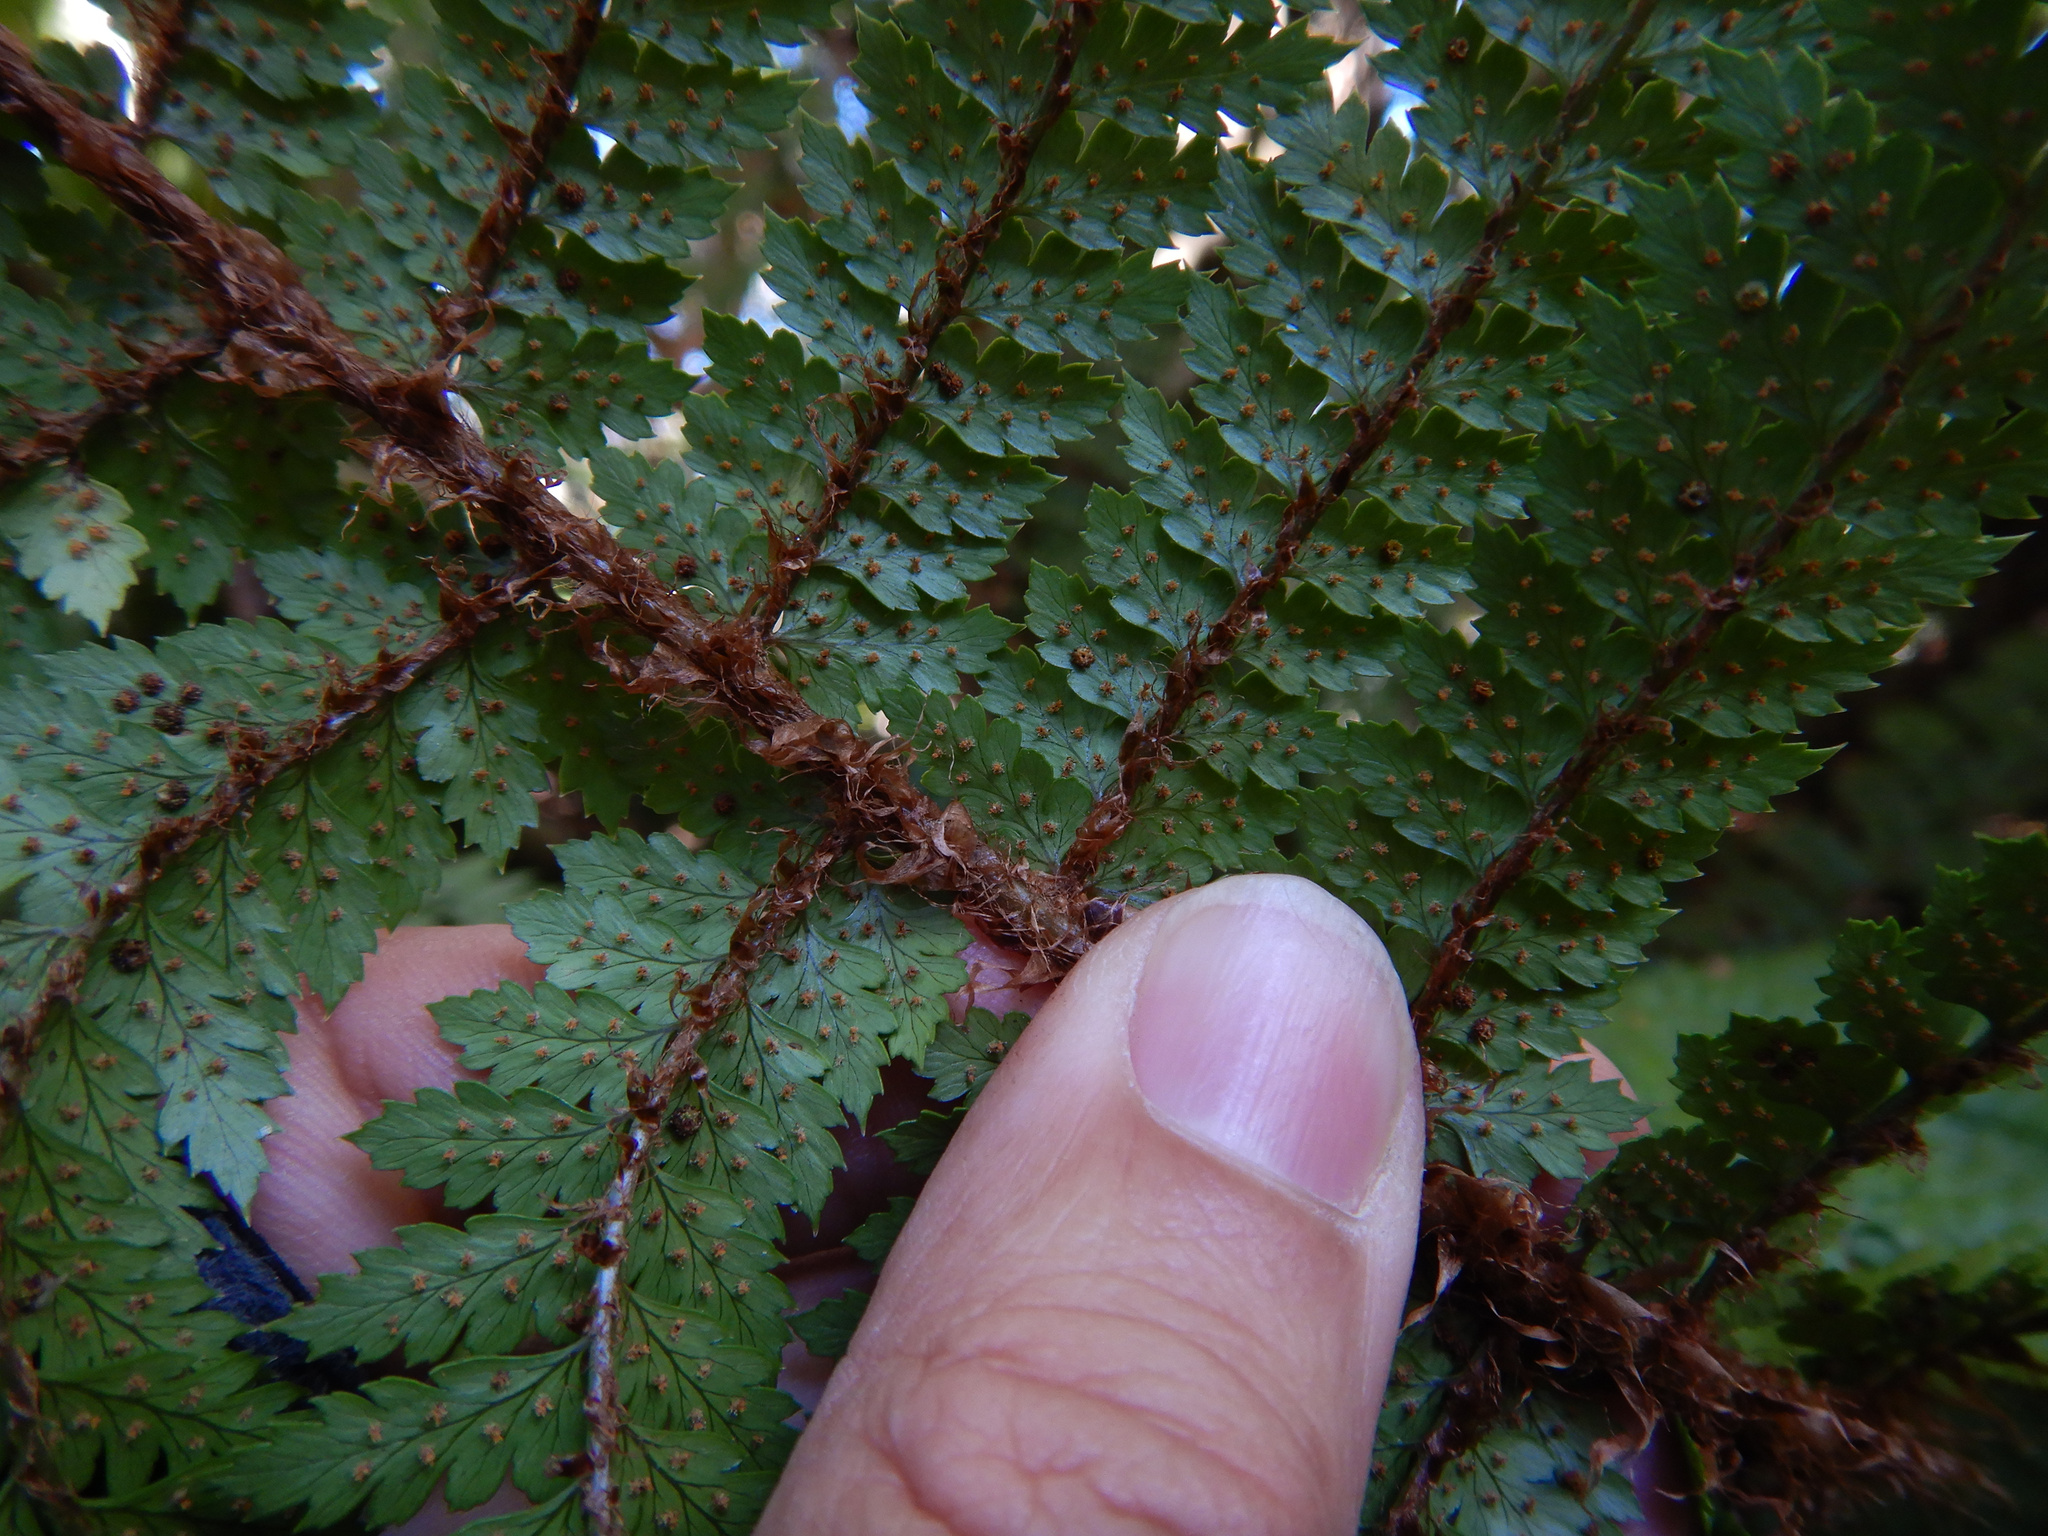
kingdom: Plantae
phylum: Tracheophyta
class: Polypodiopsida
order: Polypodiales
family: Dryopteridaceae
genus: Polystichum
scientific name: Polystichum vestitum
